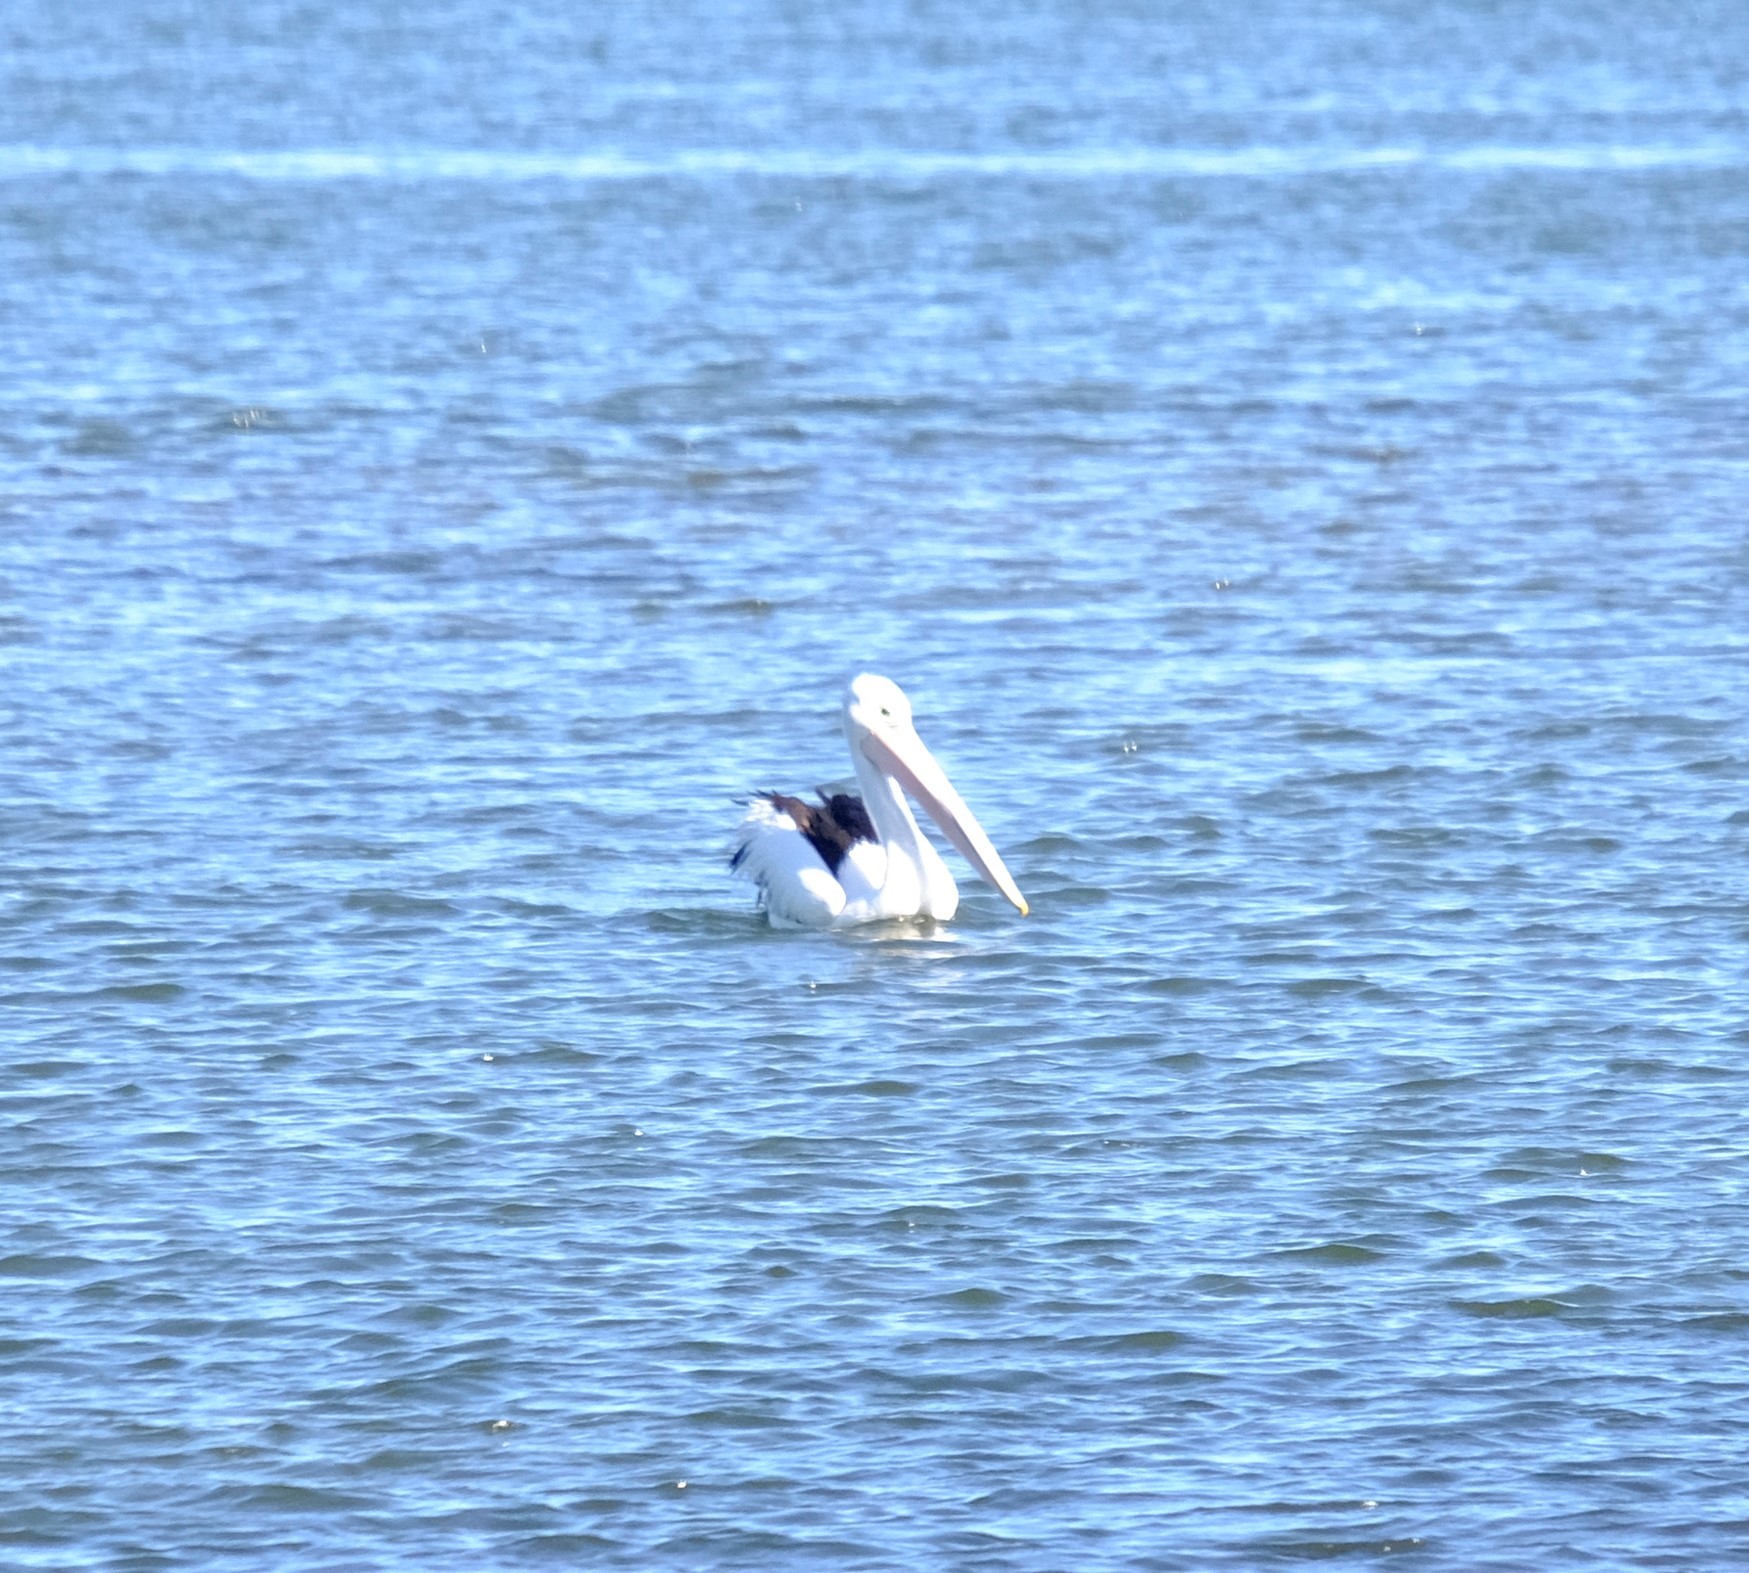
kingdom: Animalia
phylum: Chordata
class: Aves
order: Pelecaniformes
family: Pelecanidae
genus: Pelecanus
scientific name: Pelecanus conspicillatus
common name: Australian pelican
